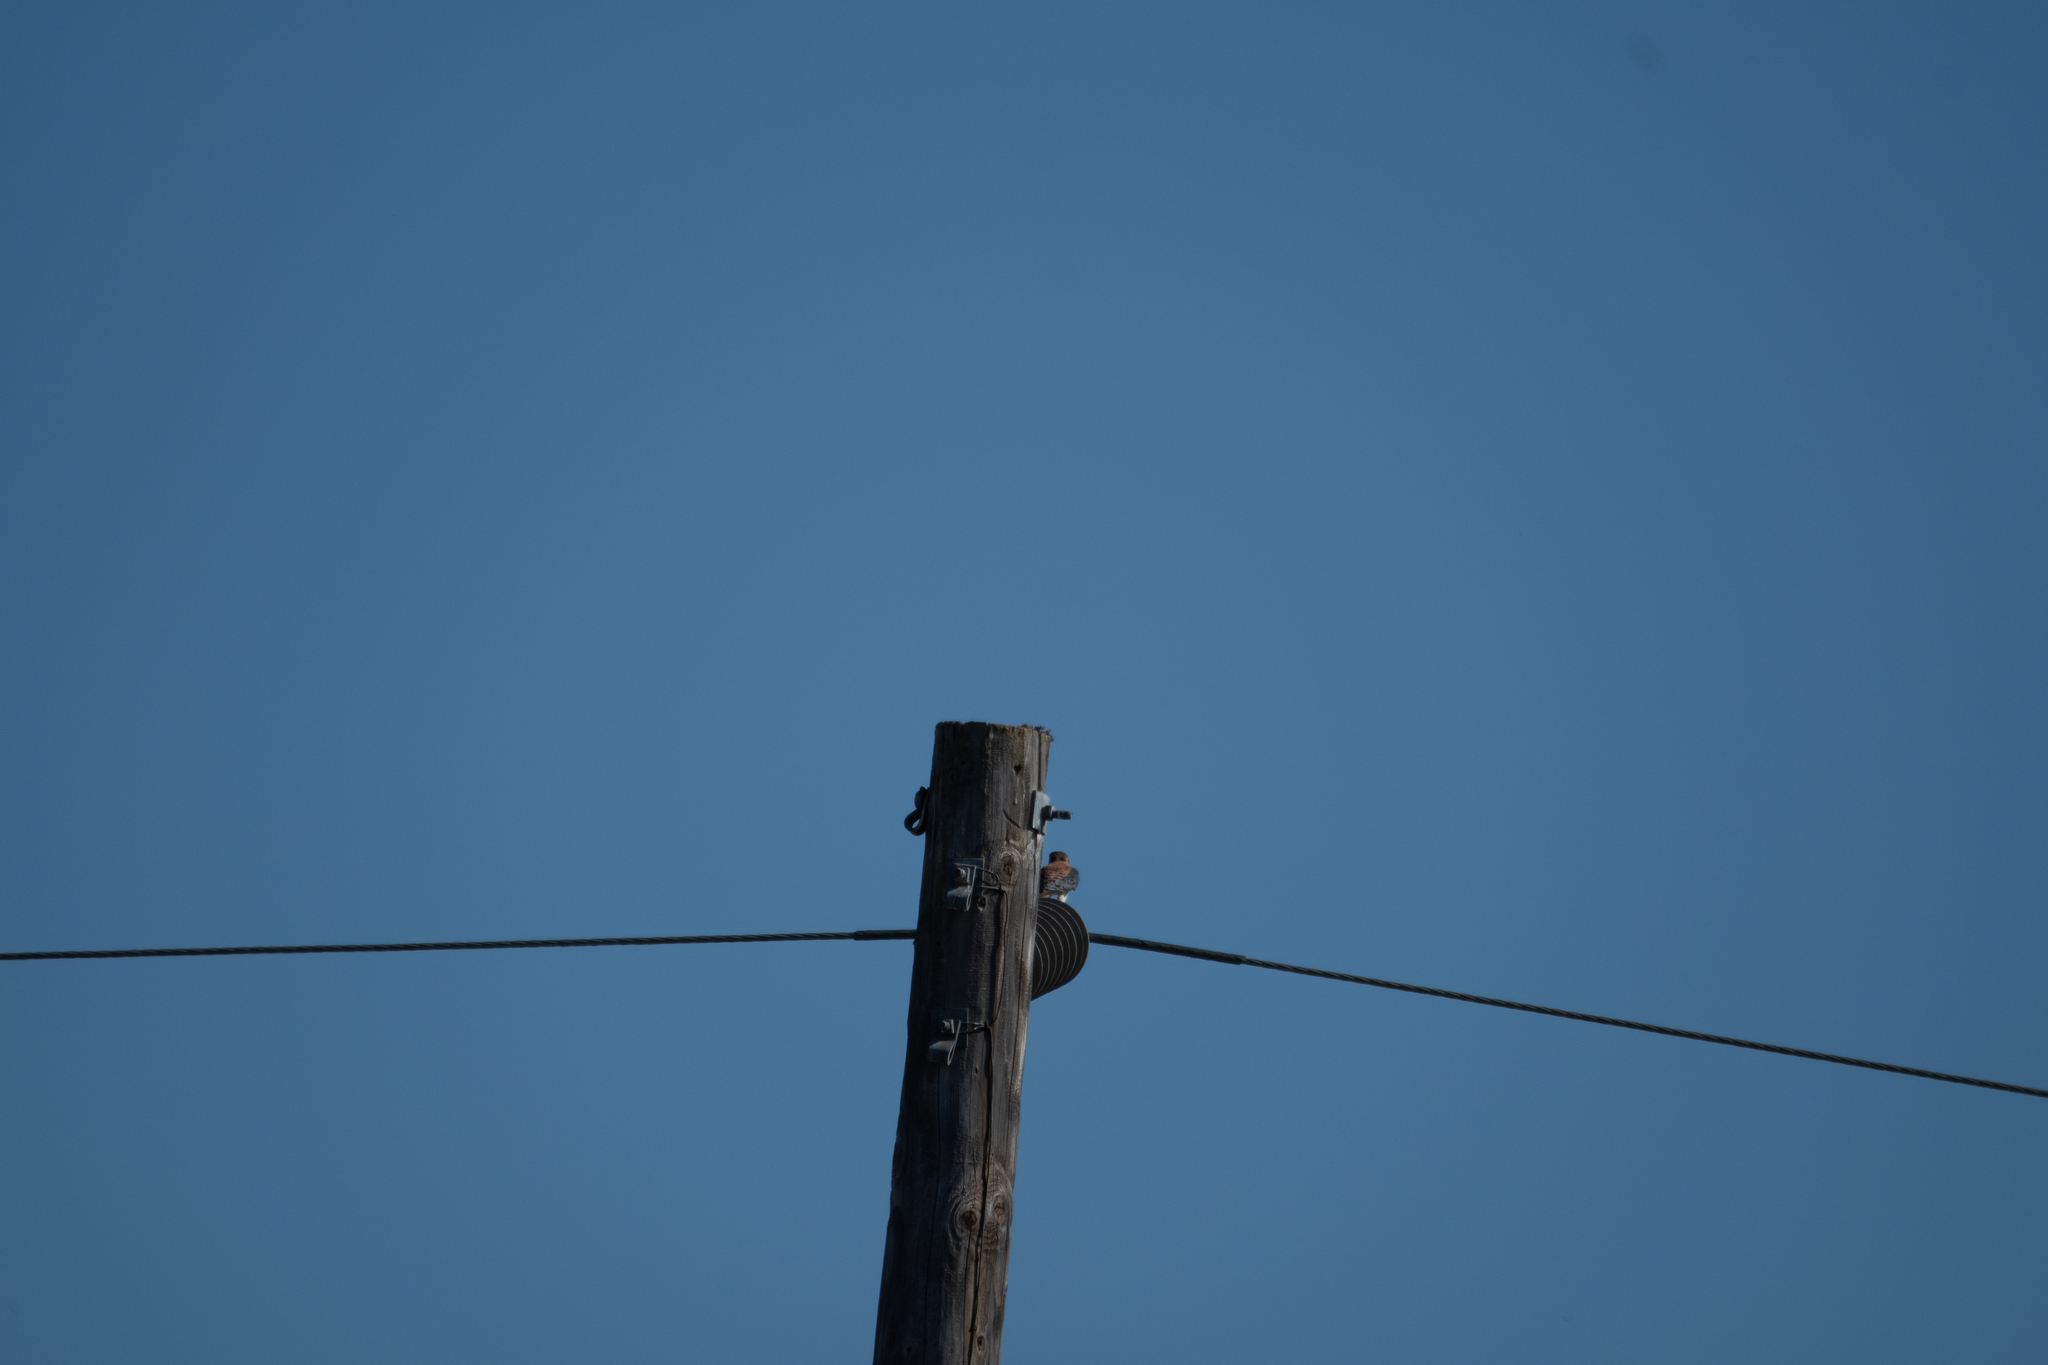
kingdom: Animalia
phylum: Chordata
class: Aves
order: Falconiformes
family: Falconidae
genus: Falco
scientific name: Falco sparverius
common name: American kestrel
